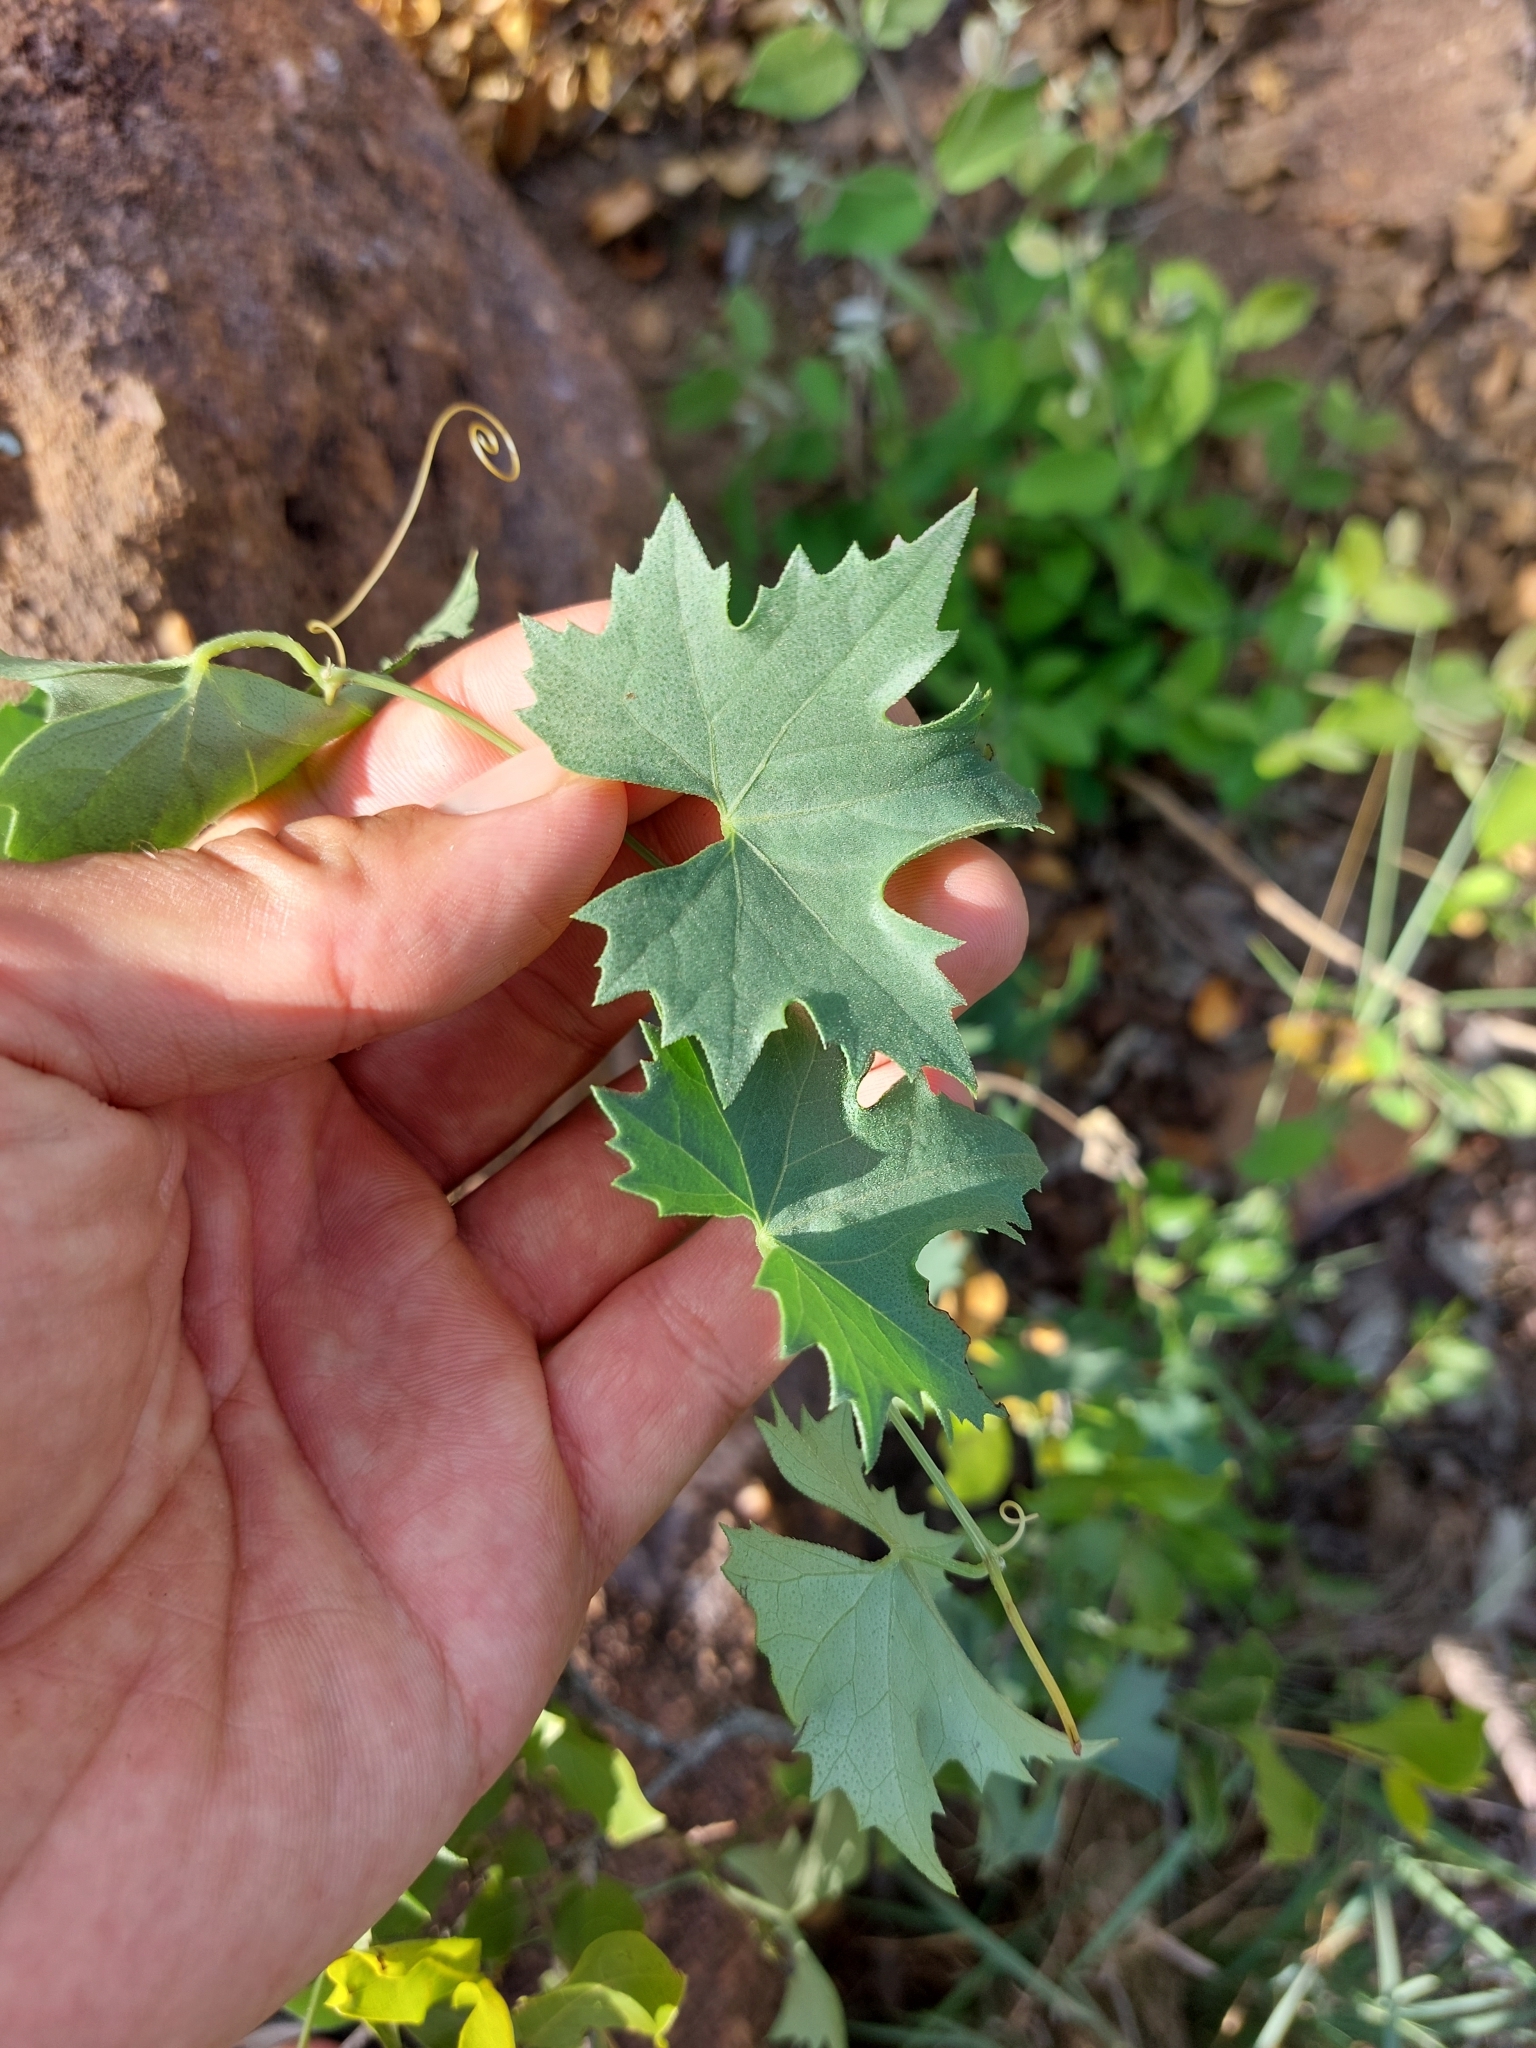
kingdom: Plantae
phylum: Tracheophyta
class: Magnoliopsida
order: Cucurbitales
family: Cucurbitaceae
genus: Momordica
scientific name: Momordica balsamina
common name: Southern balsampear
